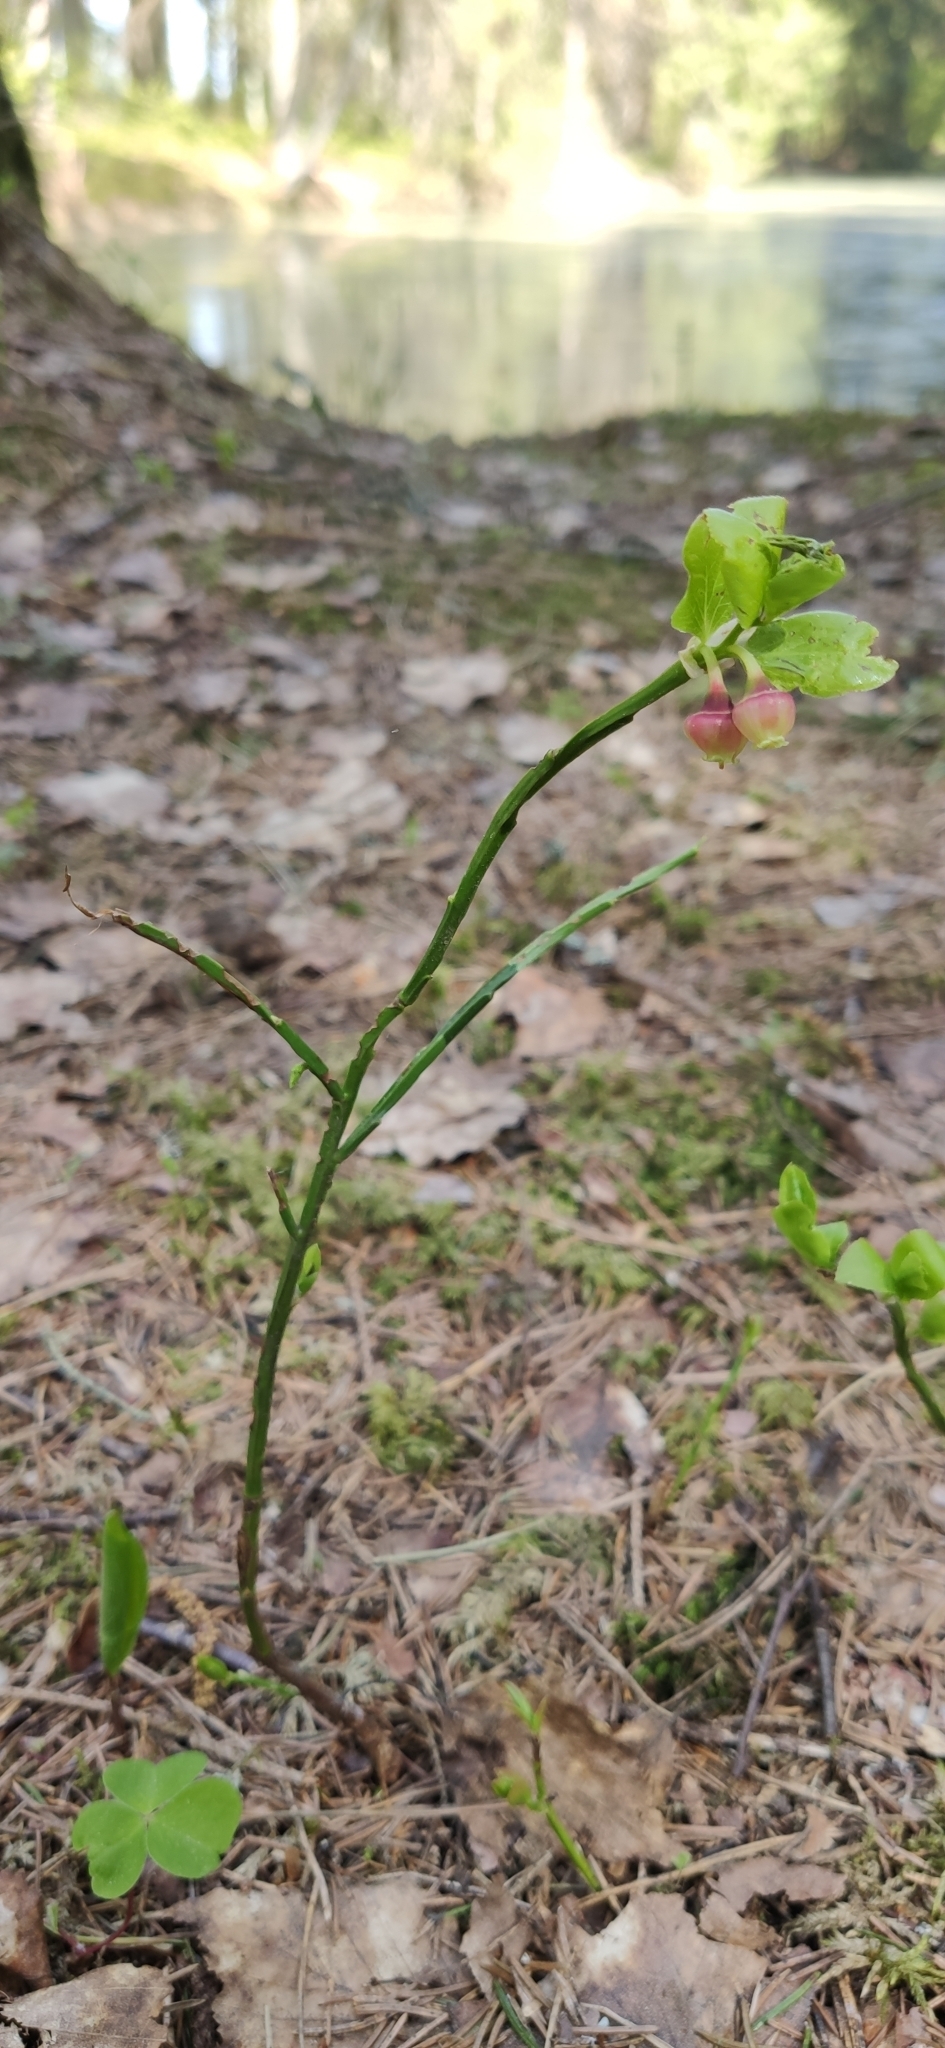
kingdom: Plantae
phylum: Tracheophyta
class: Magnoliopsida
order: Ericales
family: Ericaceae
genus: Vaccinium
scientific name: Vaccinium myrtillus
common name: Bilberry
